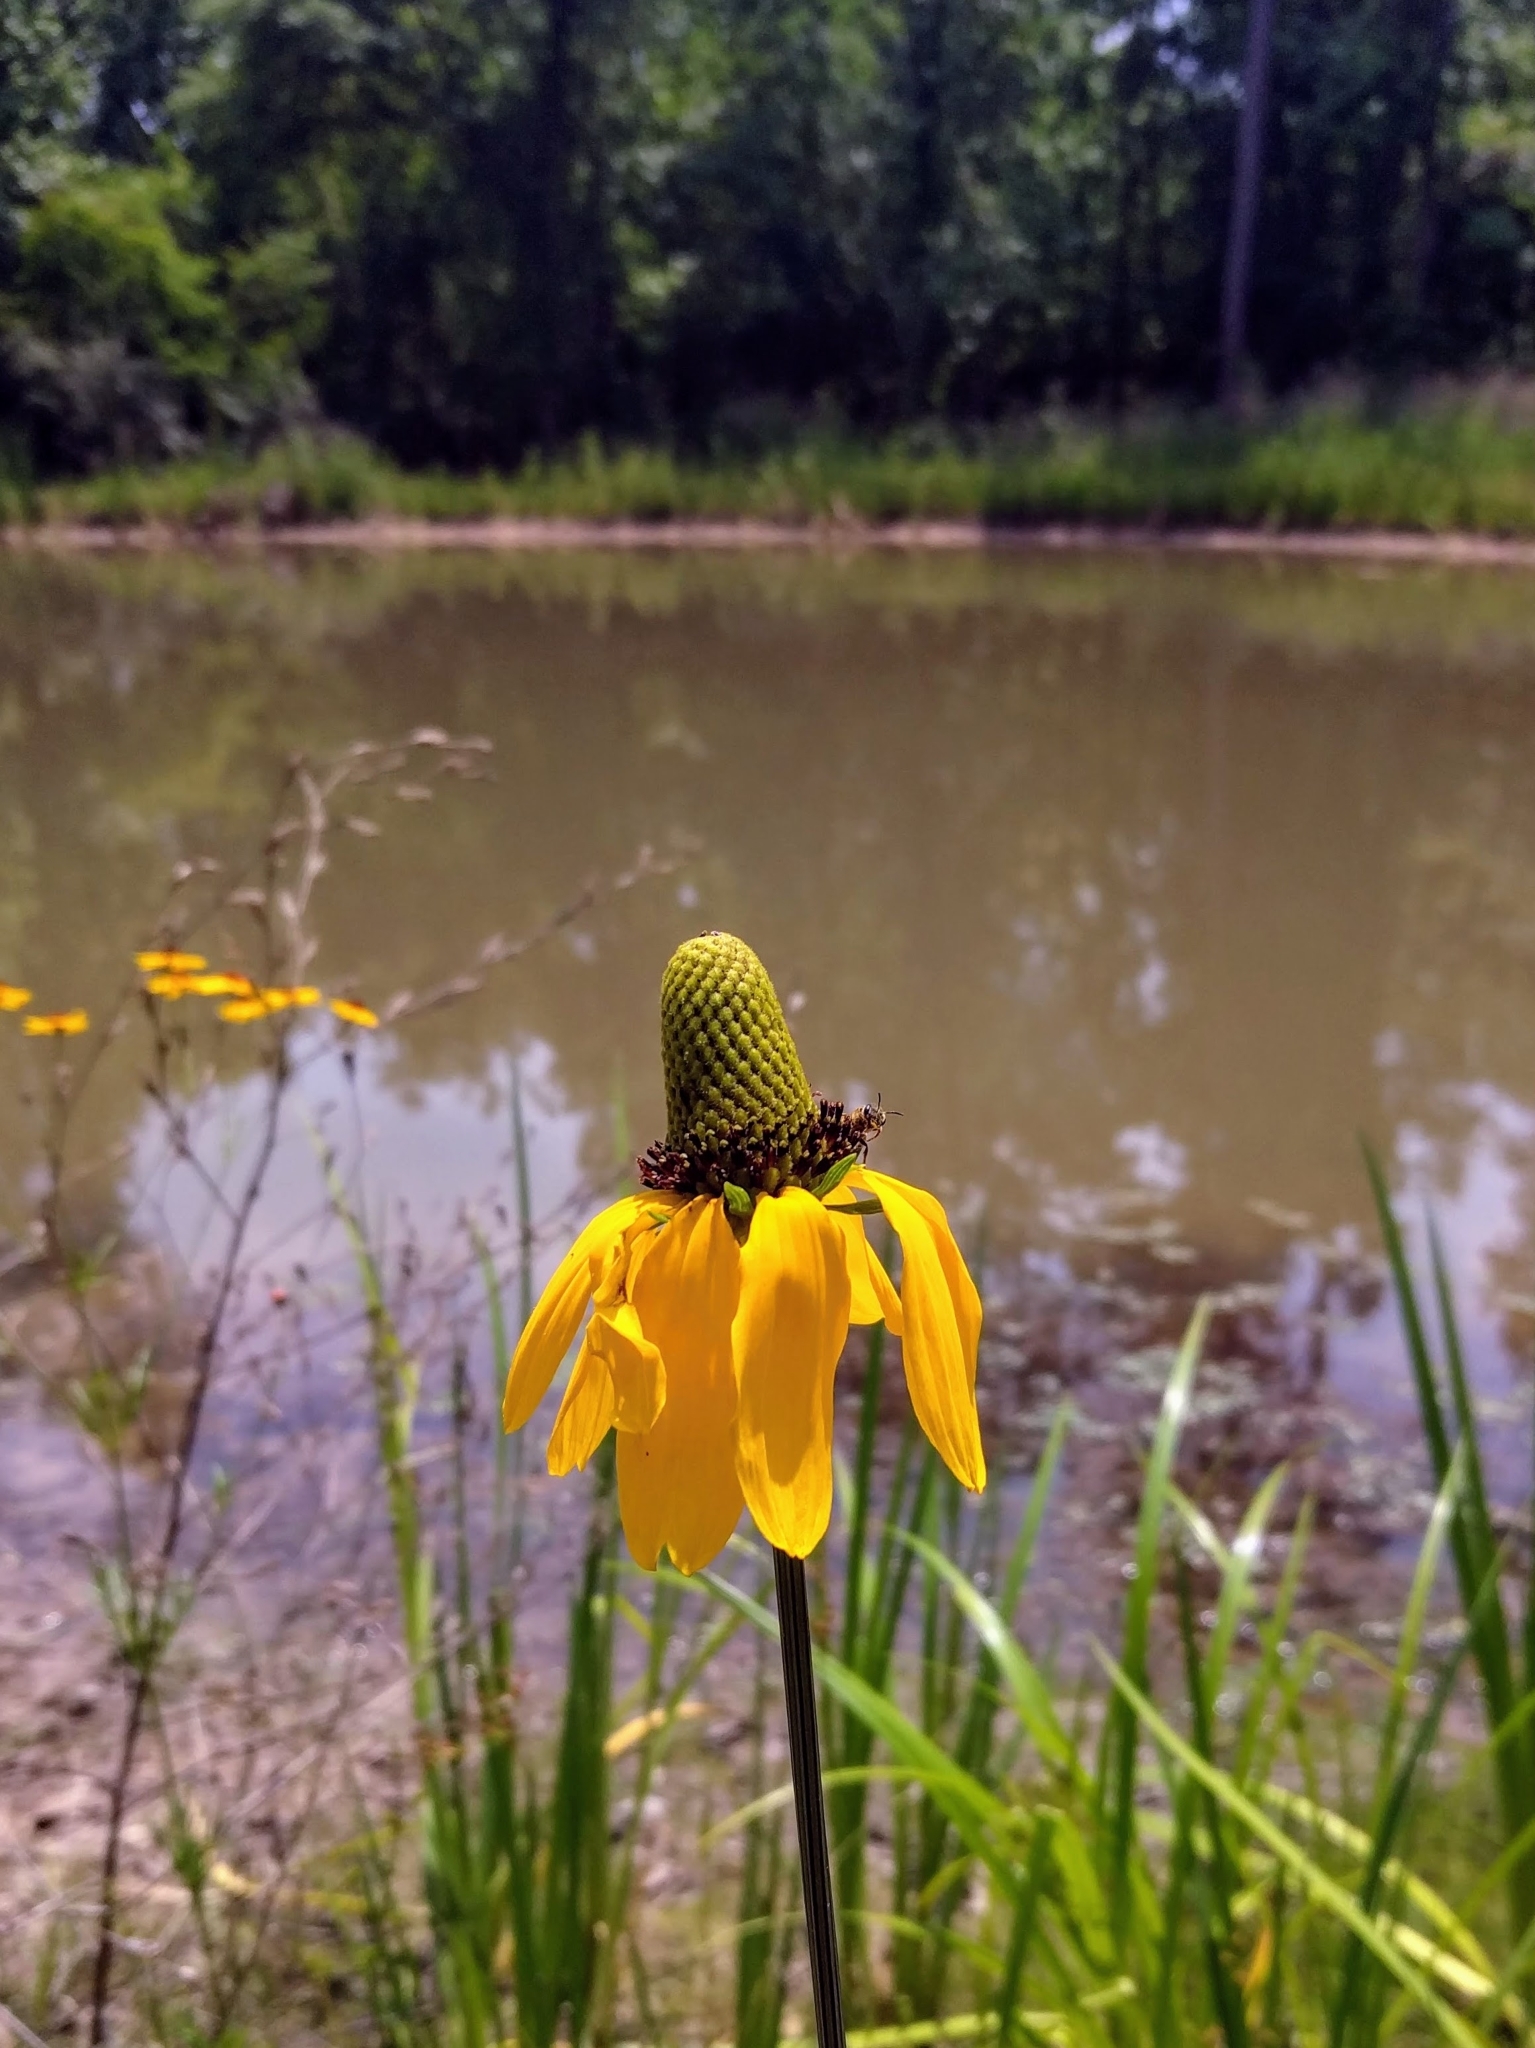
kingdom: Plantae
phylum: Tracheophyta
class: Magnoliopsida
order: Asterales
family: Asteraceae
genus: Rudbeckia
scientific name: Rudbeckia texana
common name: Texas coneflower
